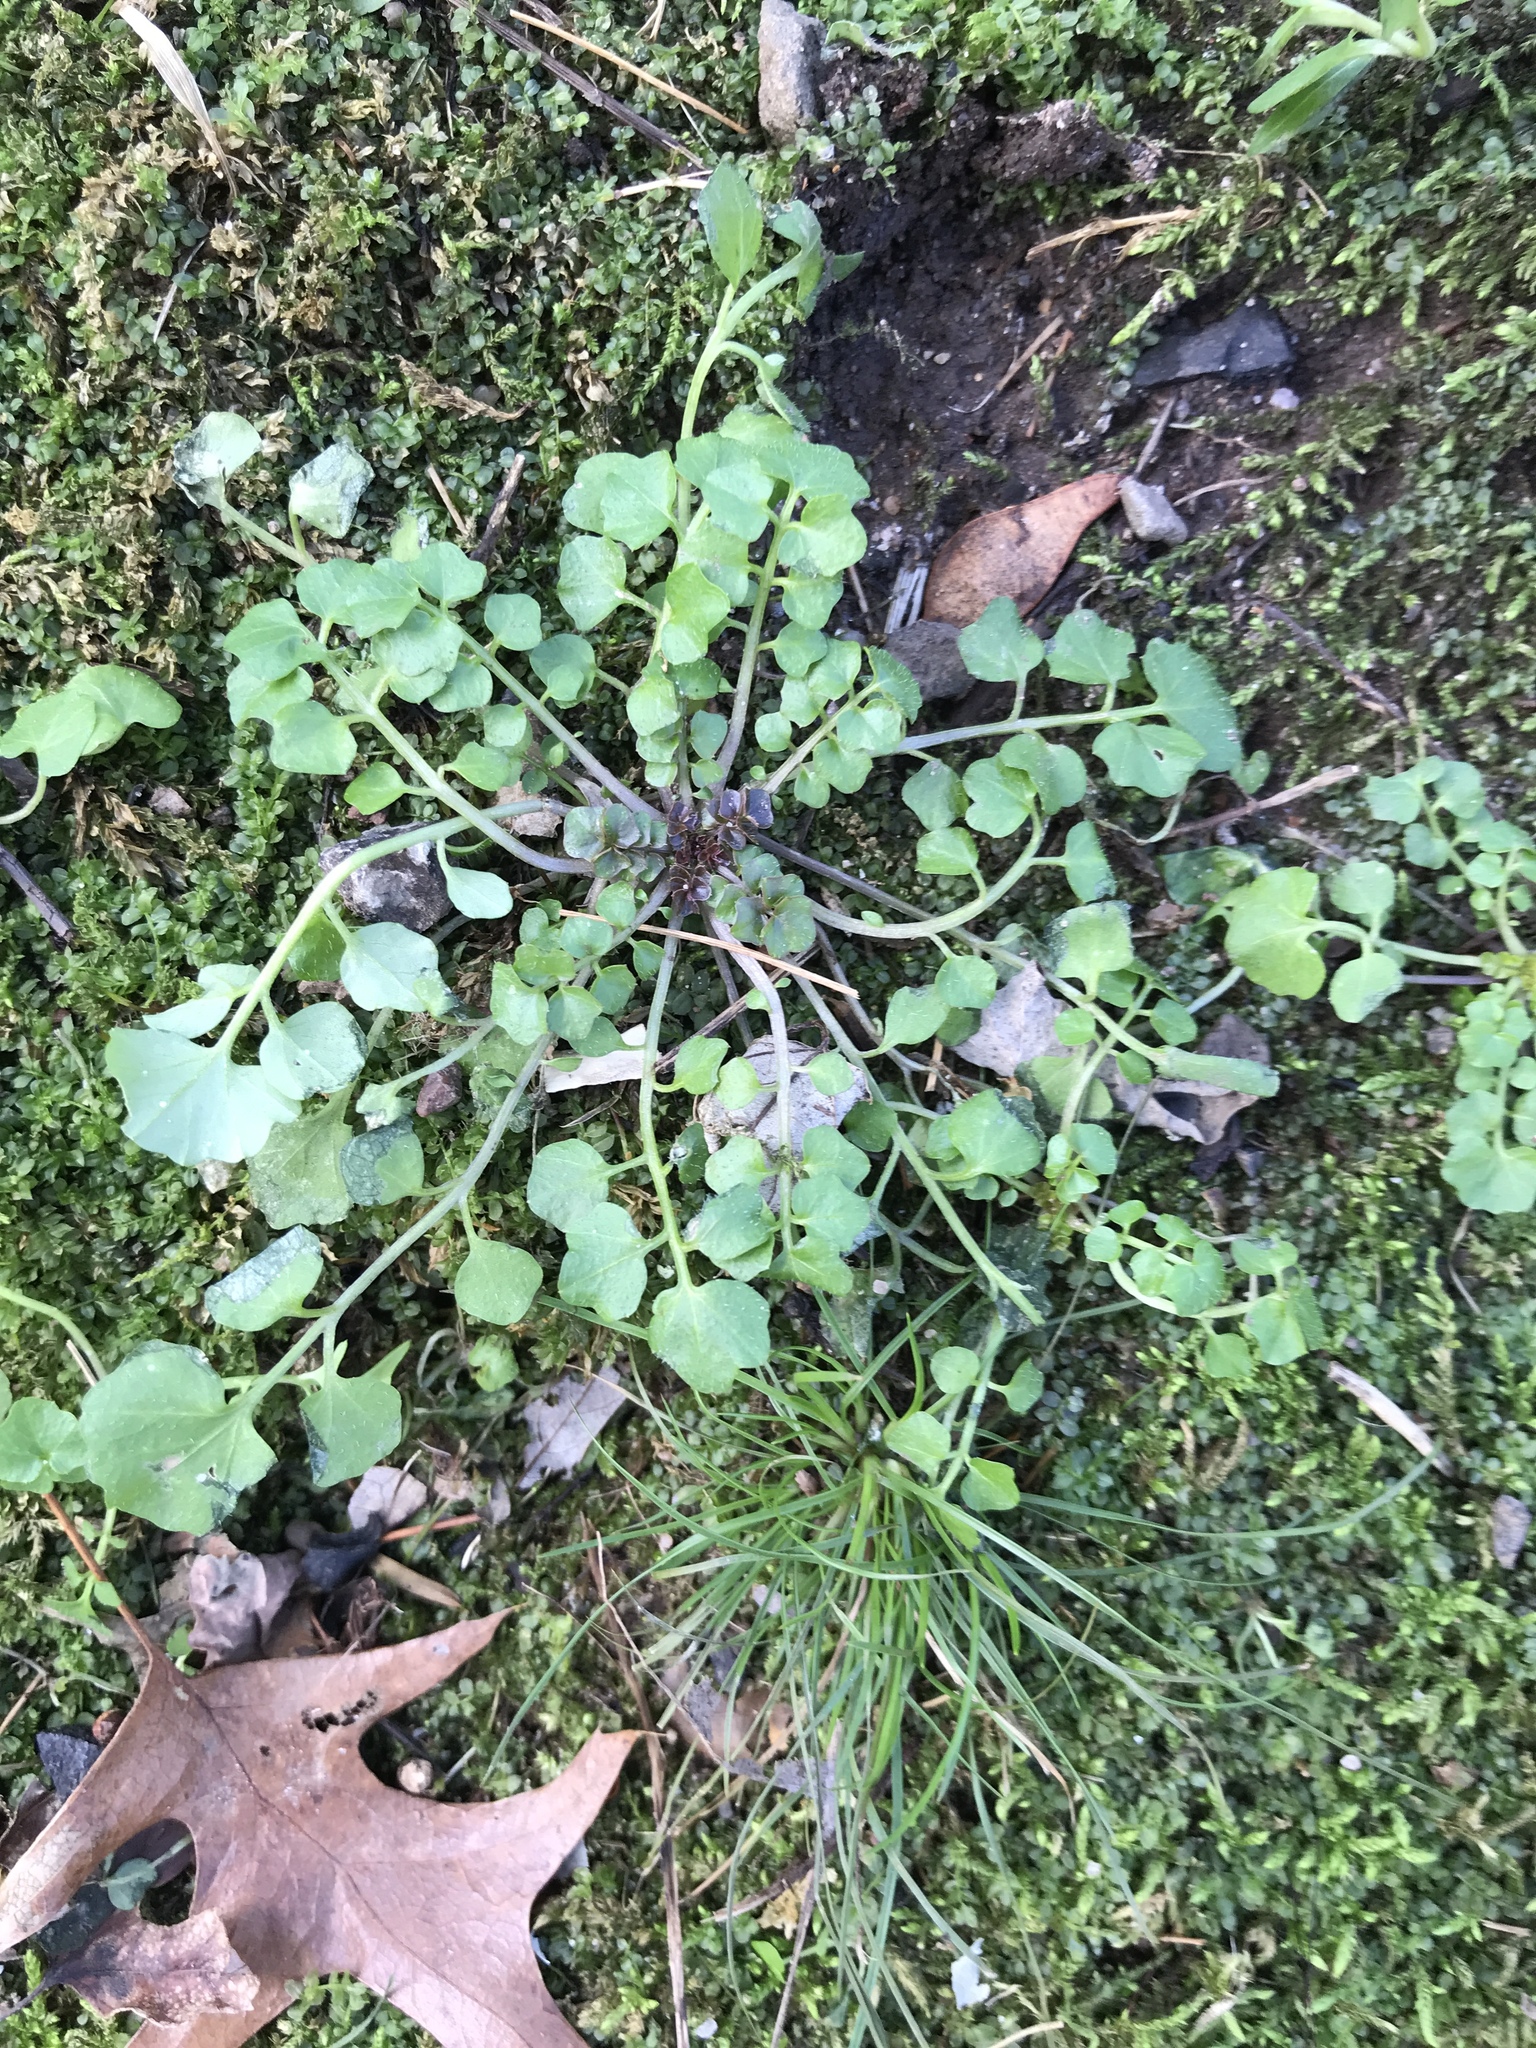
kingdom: Plantae
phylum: Tracheophyta
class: Magnoliopsida
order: Brassicales
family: Brassicaceae
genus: Cardamine
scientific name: Cardamine hirsuta
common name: Hairy bittercress
